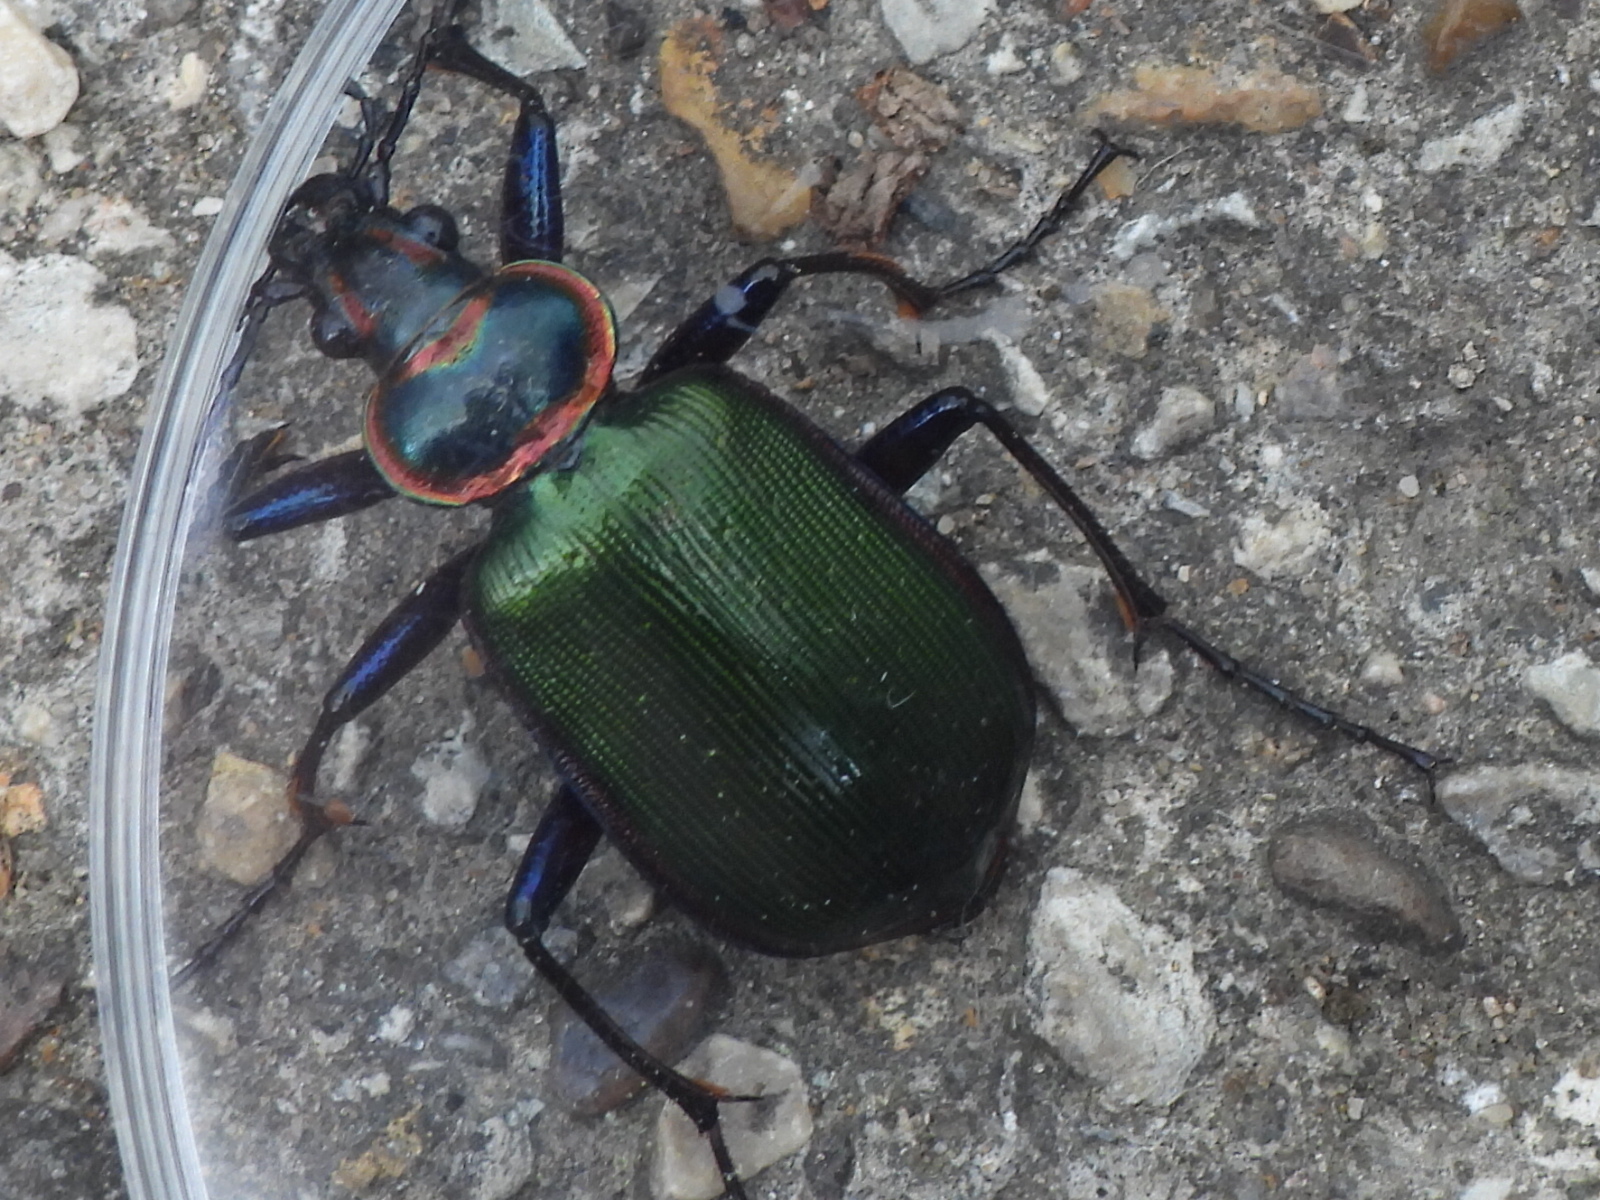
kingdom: Animalia
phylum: Arthropoda
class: Insecta
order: Coleoptera
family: Carabidae
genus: Calosoma
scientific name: Calosoma scrutator
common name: Fiery searcher beetle
